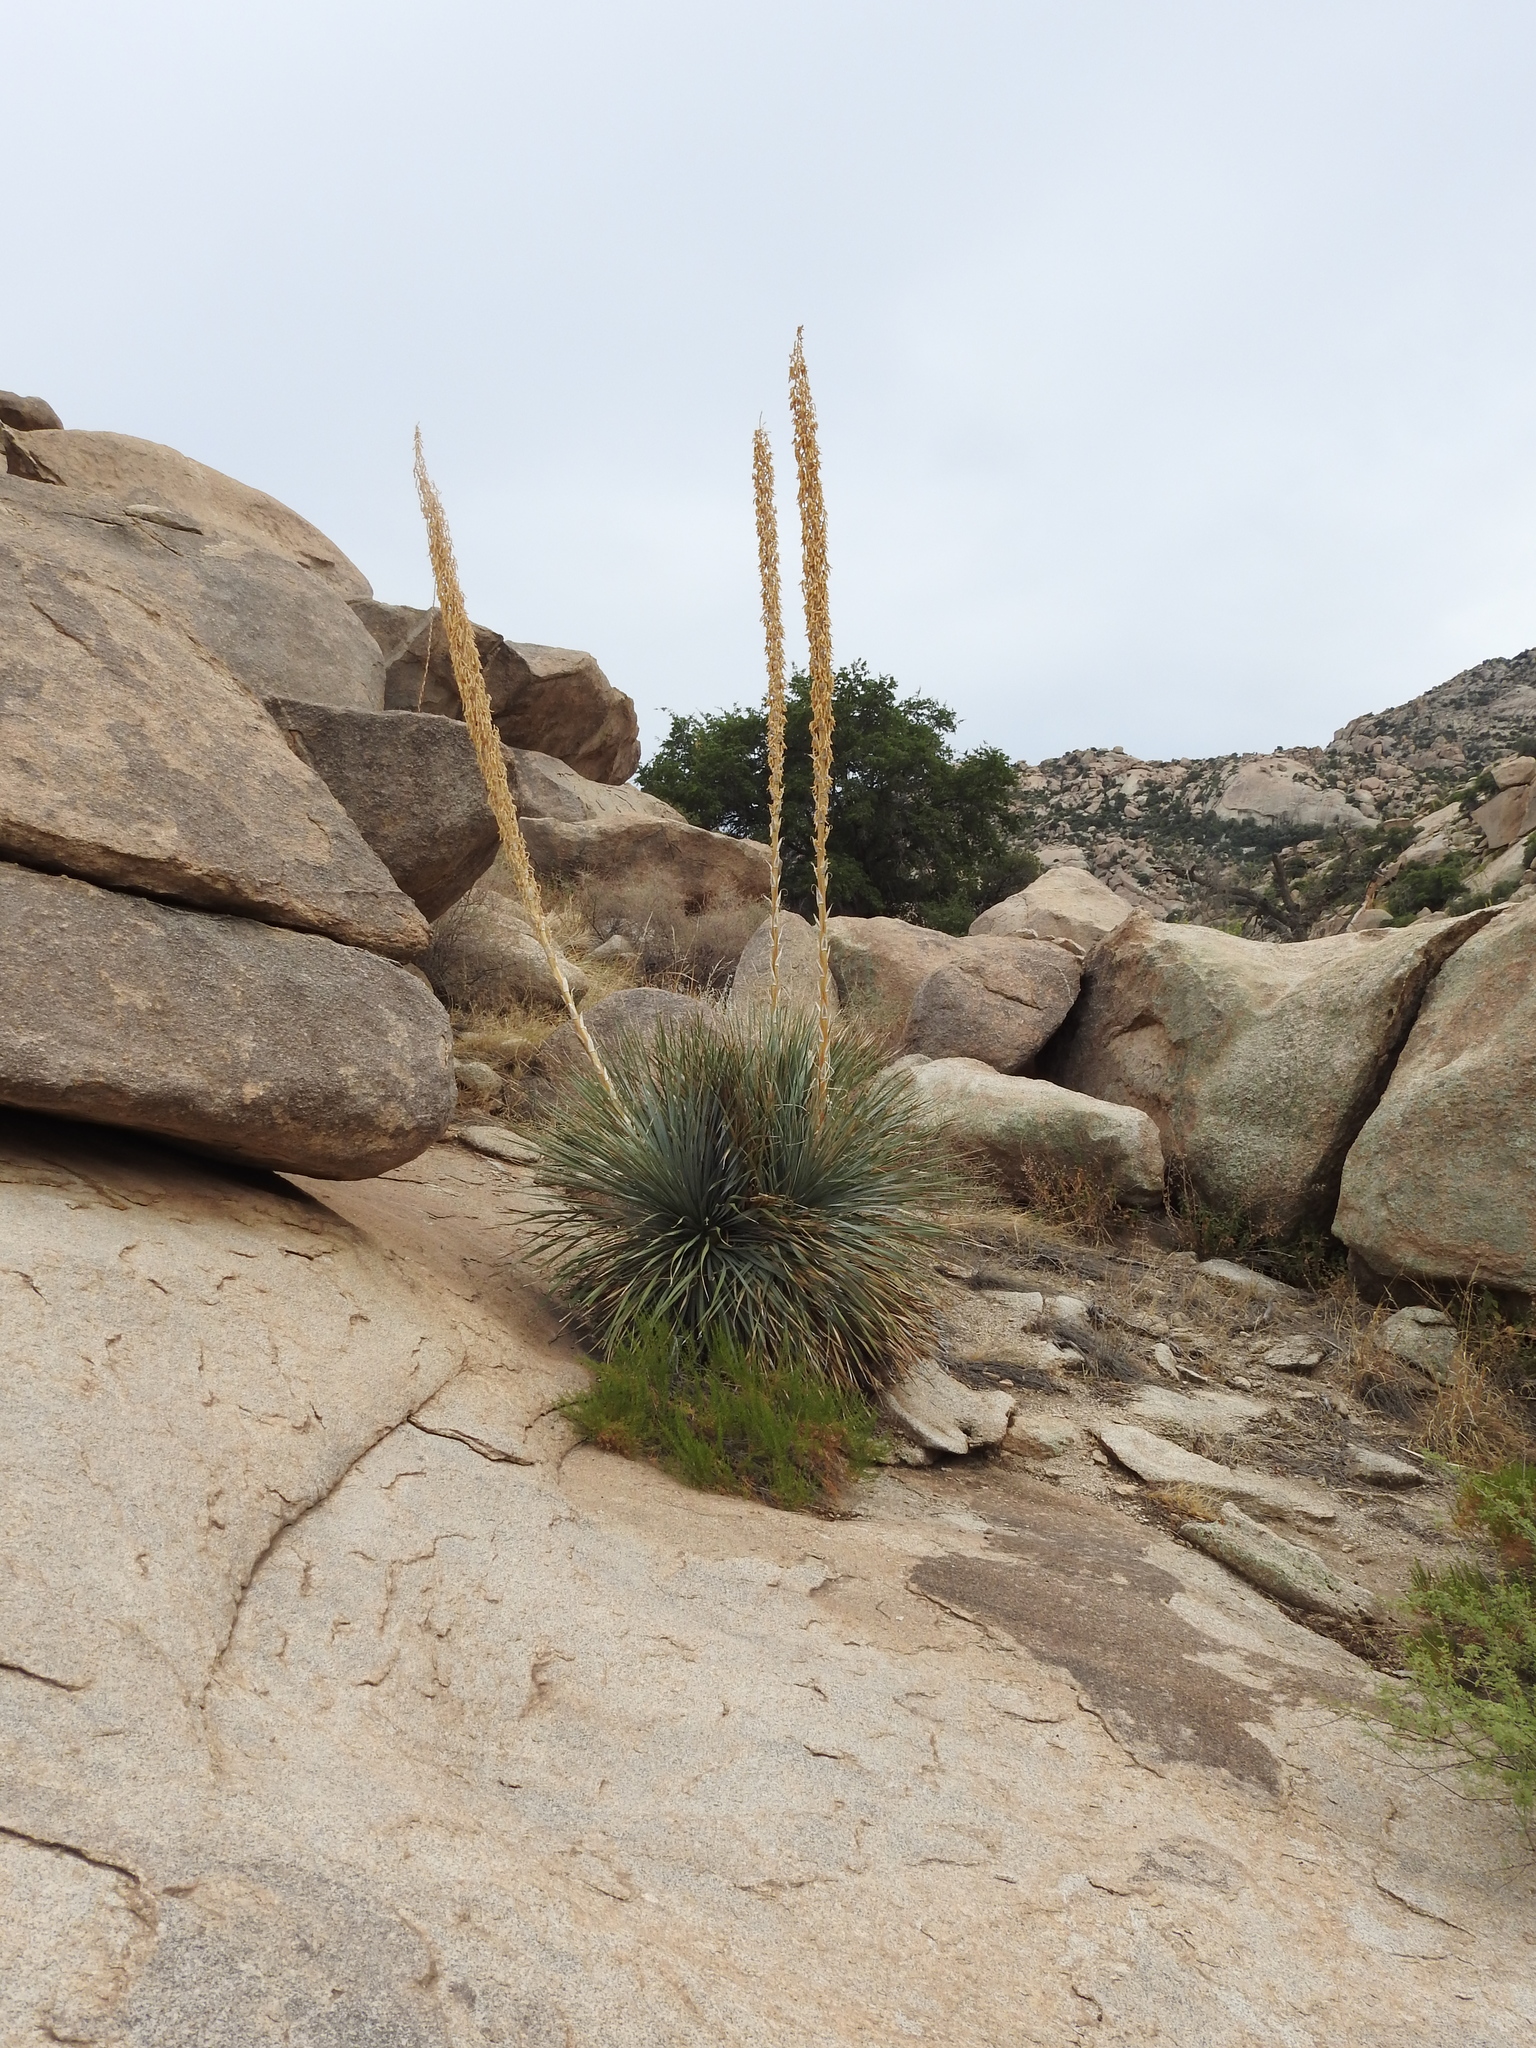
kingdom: Plantae
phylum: Tracheophyta
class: Liliopsida
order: Asparagales
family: Asparagaceae
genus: Dasylirion
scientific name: Dasylirion wheeleri
